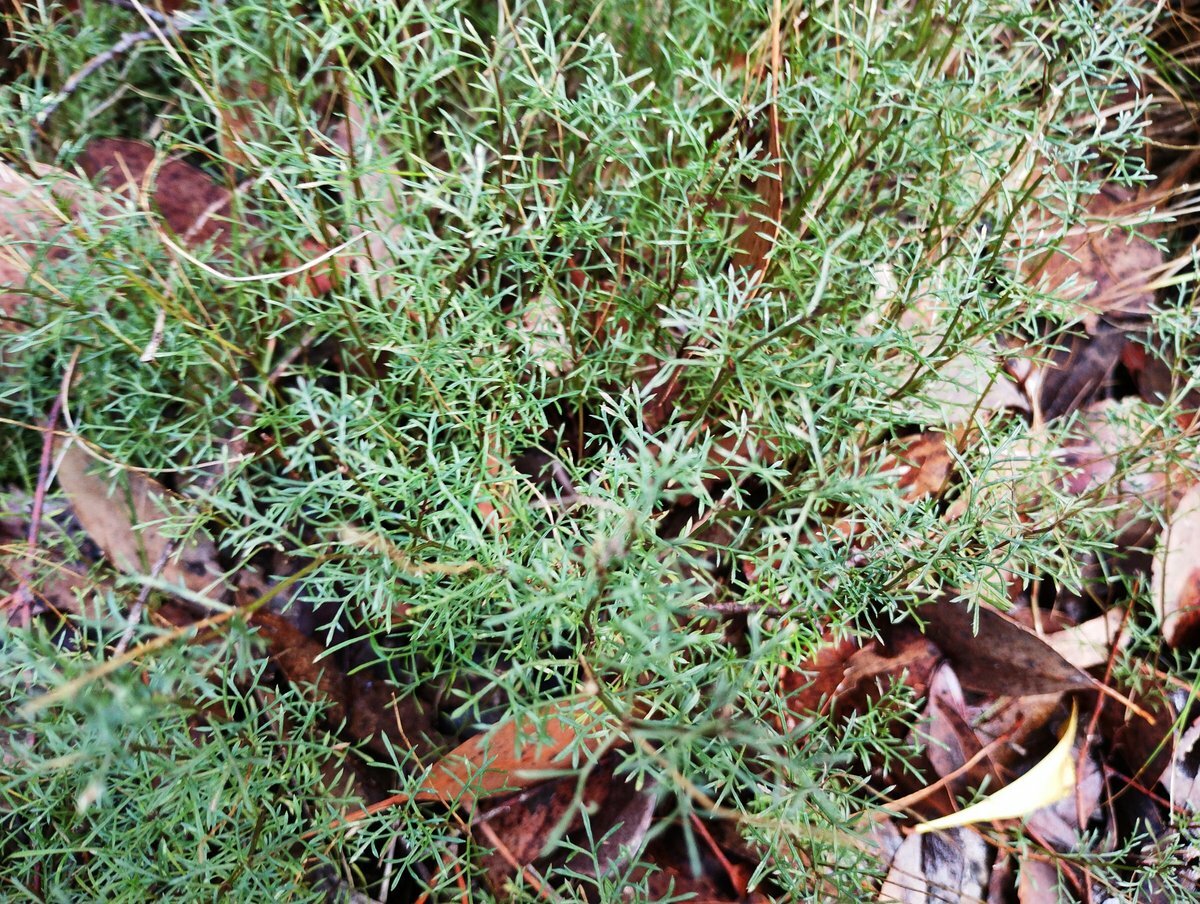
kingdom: Plantae
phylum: Tracheophyta
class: Magnoliopsida
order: Asterales
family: Asteraceae
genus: Brachyscome
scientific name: Brachyscome multifida
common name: Cut-leaf daisy
